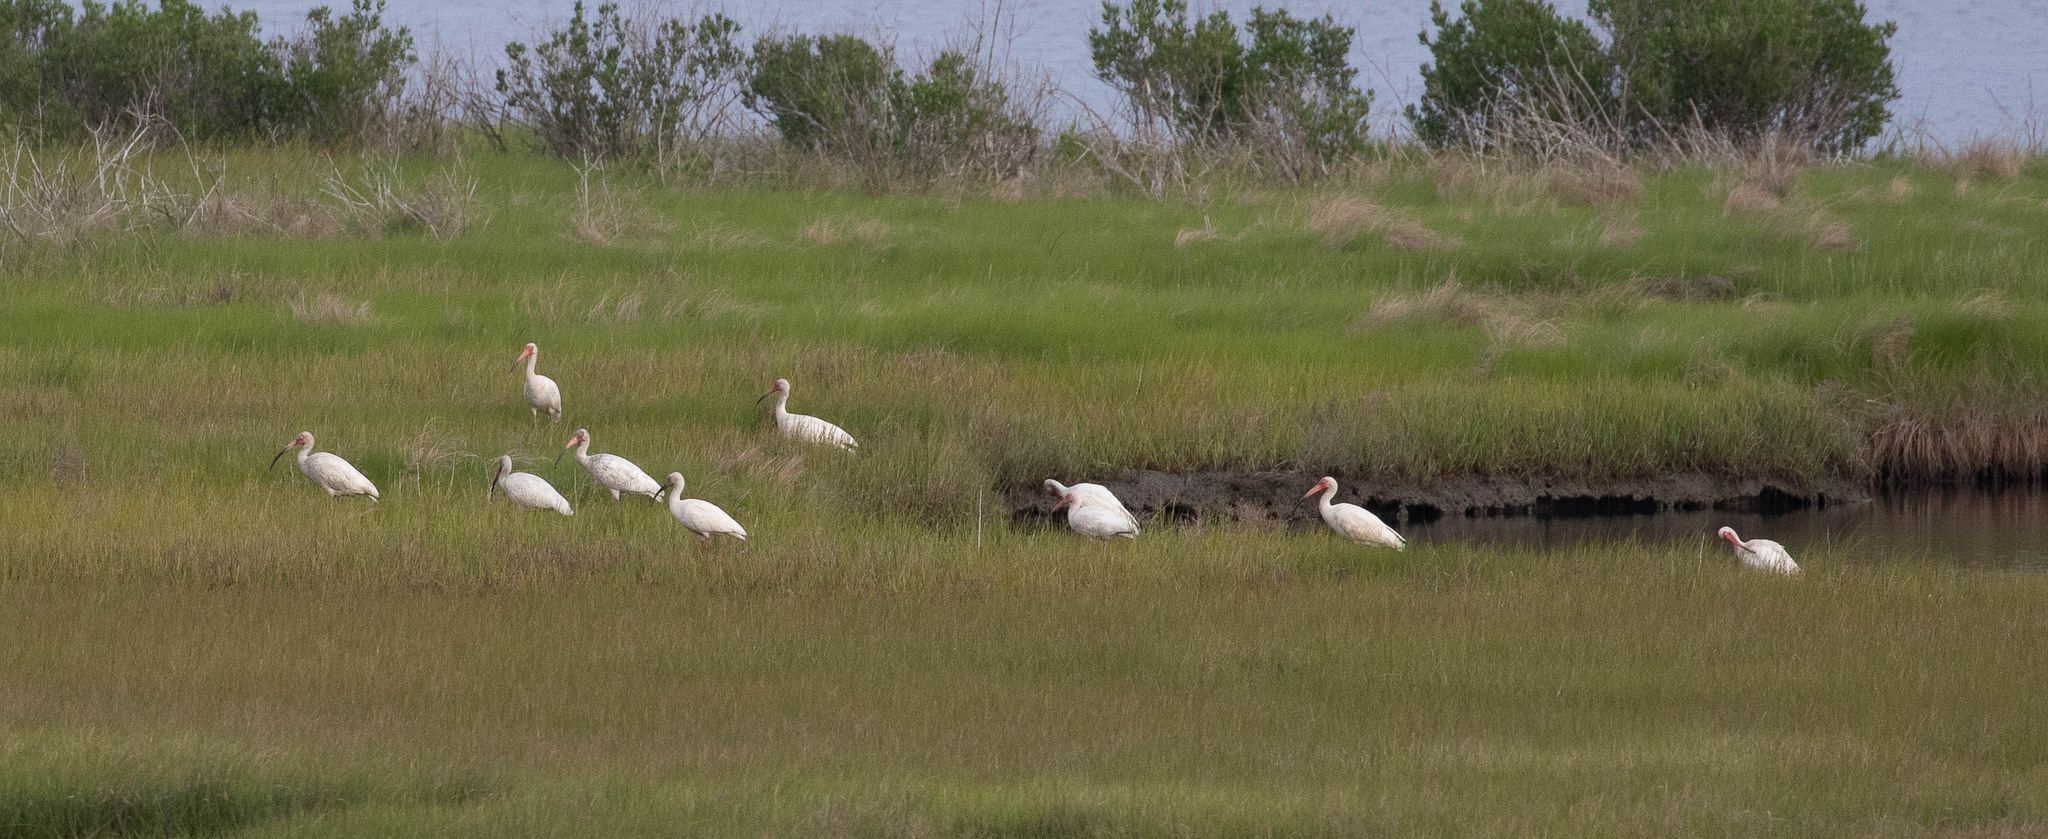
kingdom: Animalia
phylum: Chordata
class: Aves
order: Pelecaniformes
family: Threskiornithidae
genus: Eudocimus
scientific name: Eudocimus albus
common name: White ibis
